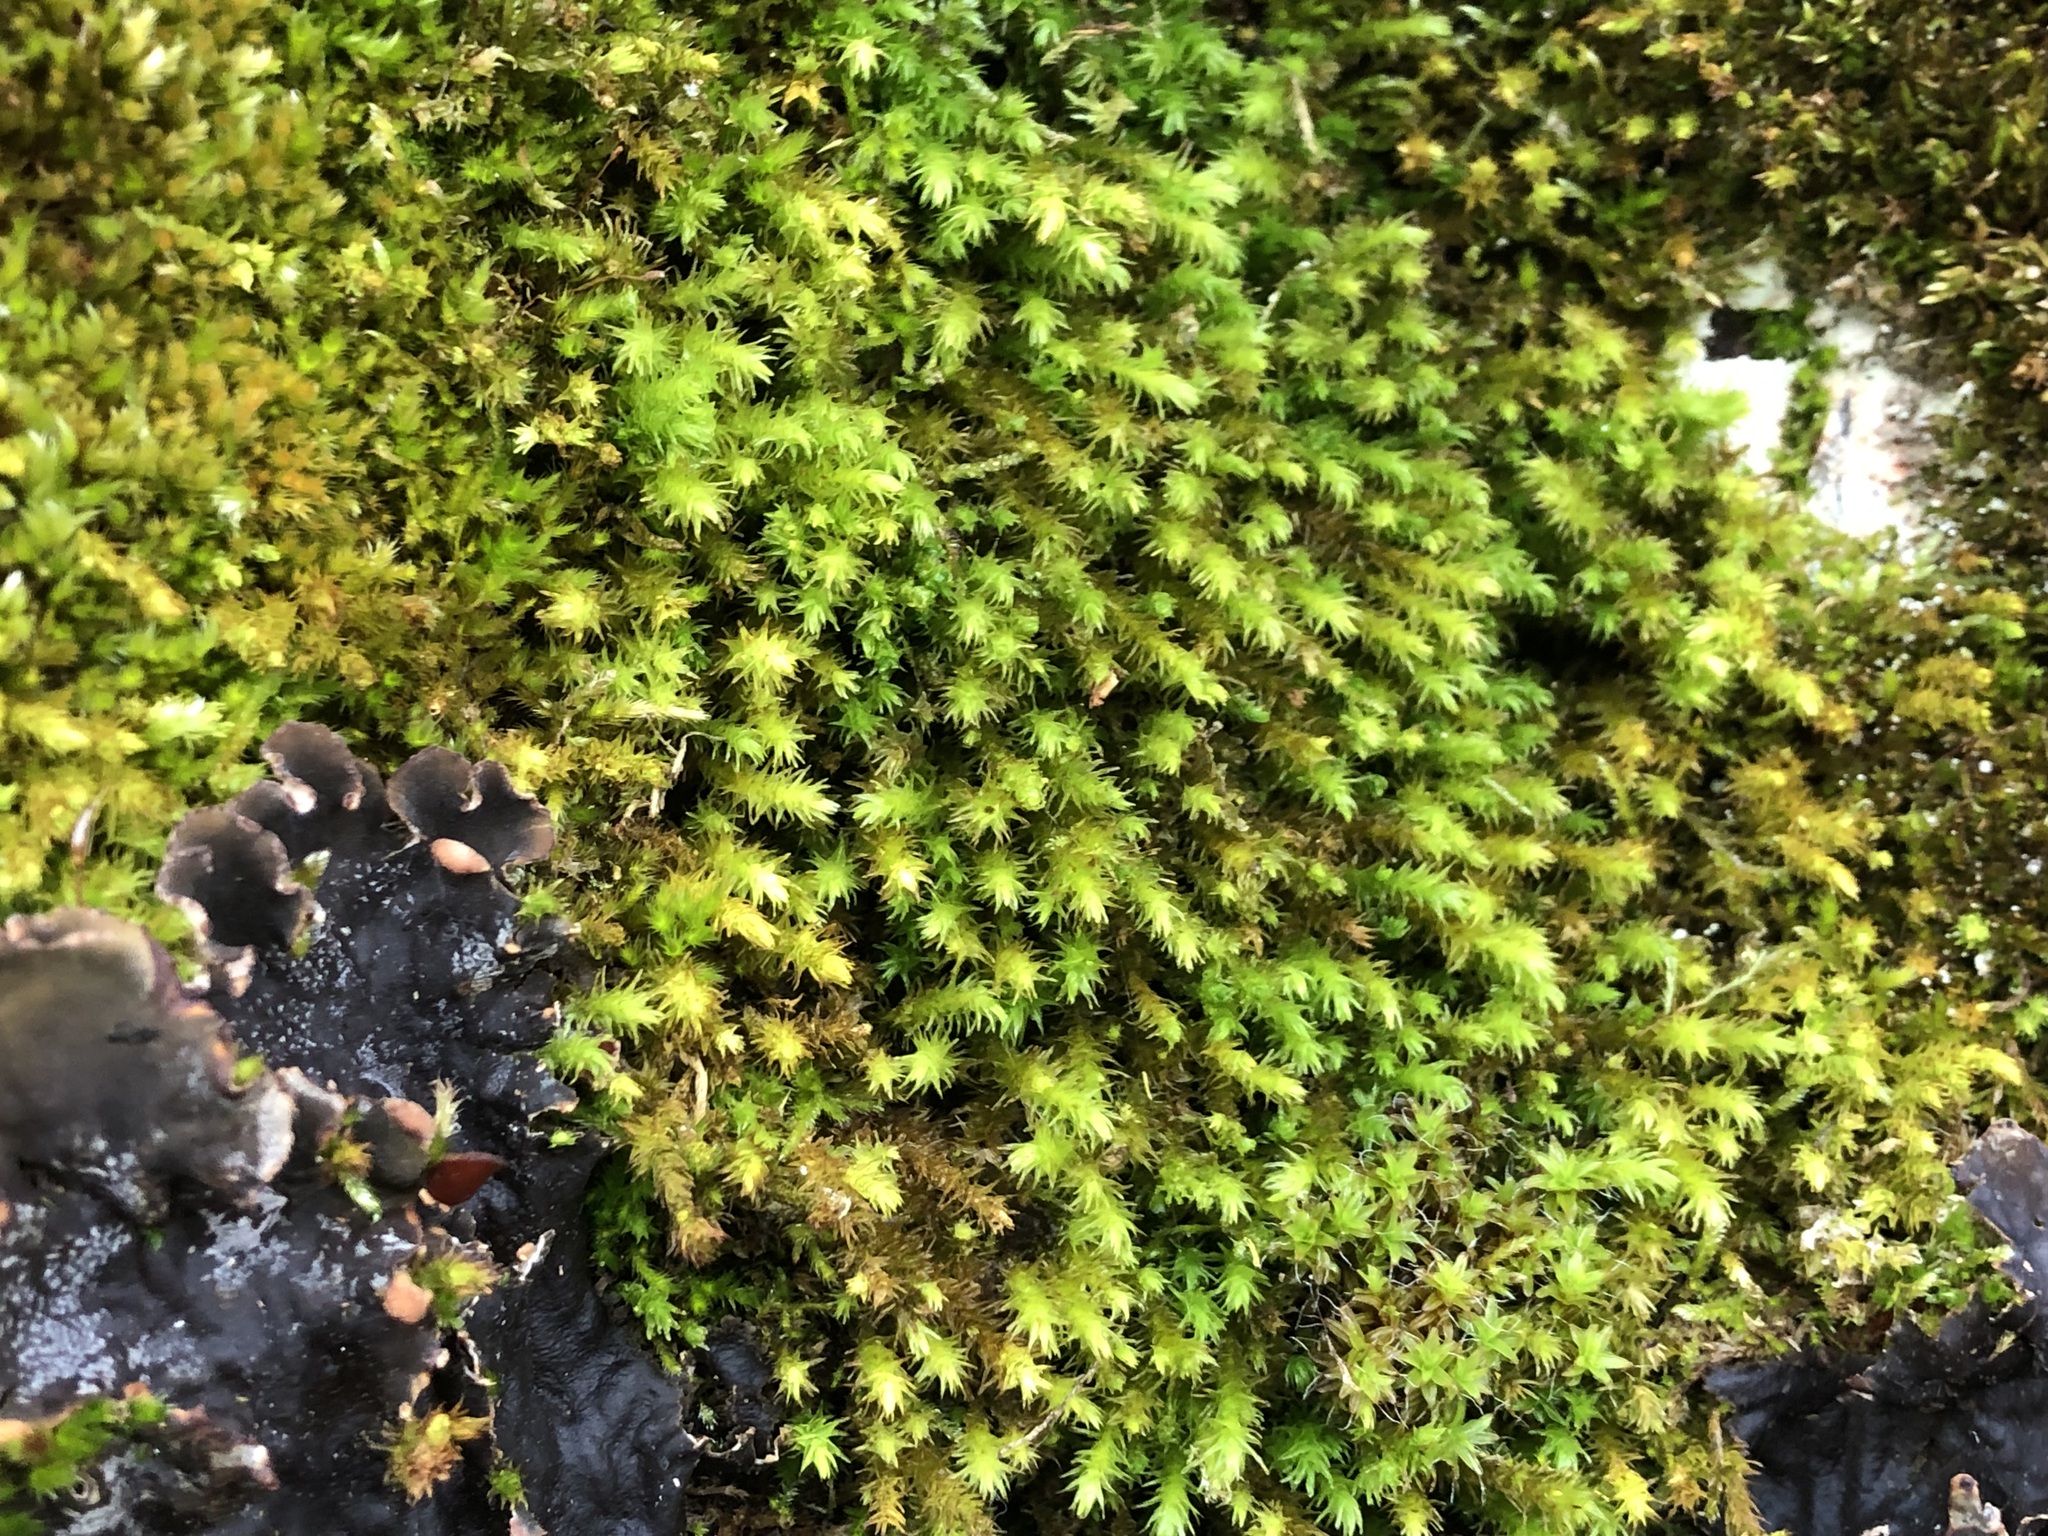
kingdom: Plantae
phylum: Bryophyta
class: Bryopsida
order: Hypnales
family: Anomodontaceae
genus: Anomodon
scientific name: Anomodon viticulosus
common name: Tall anomodon
